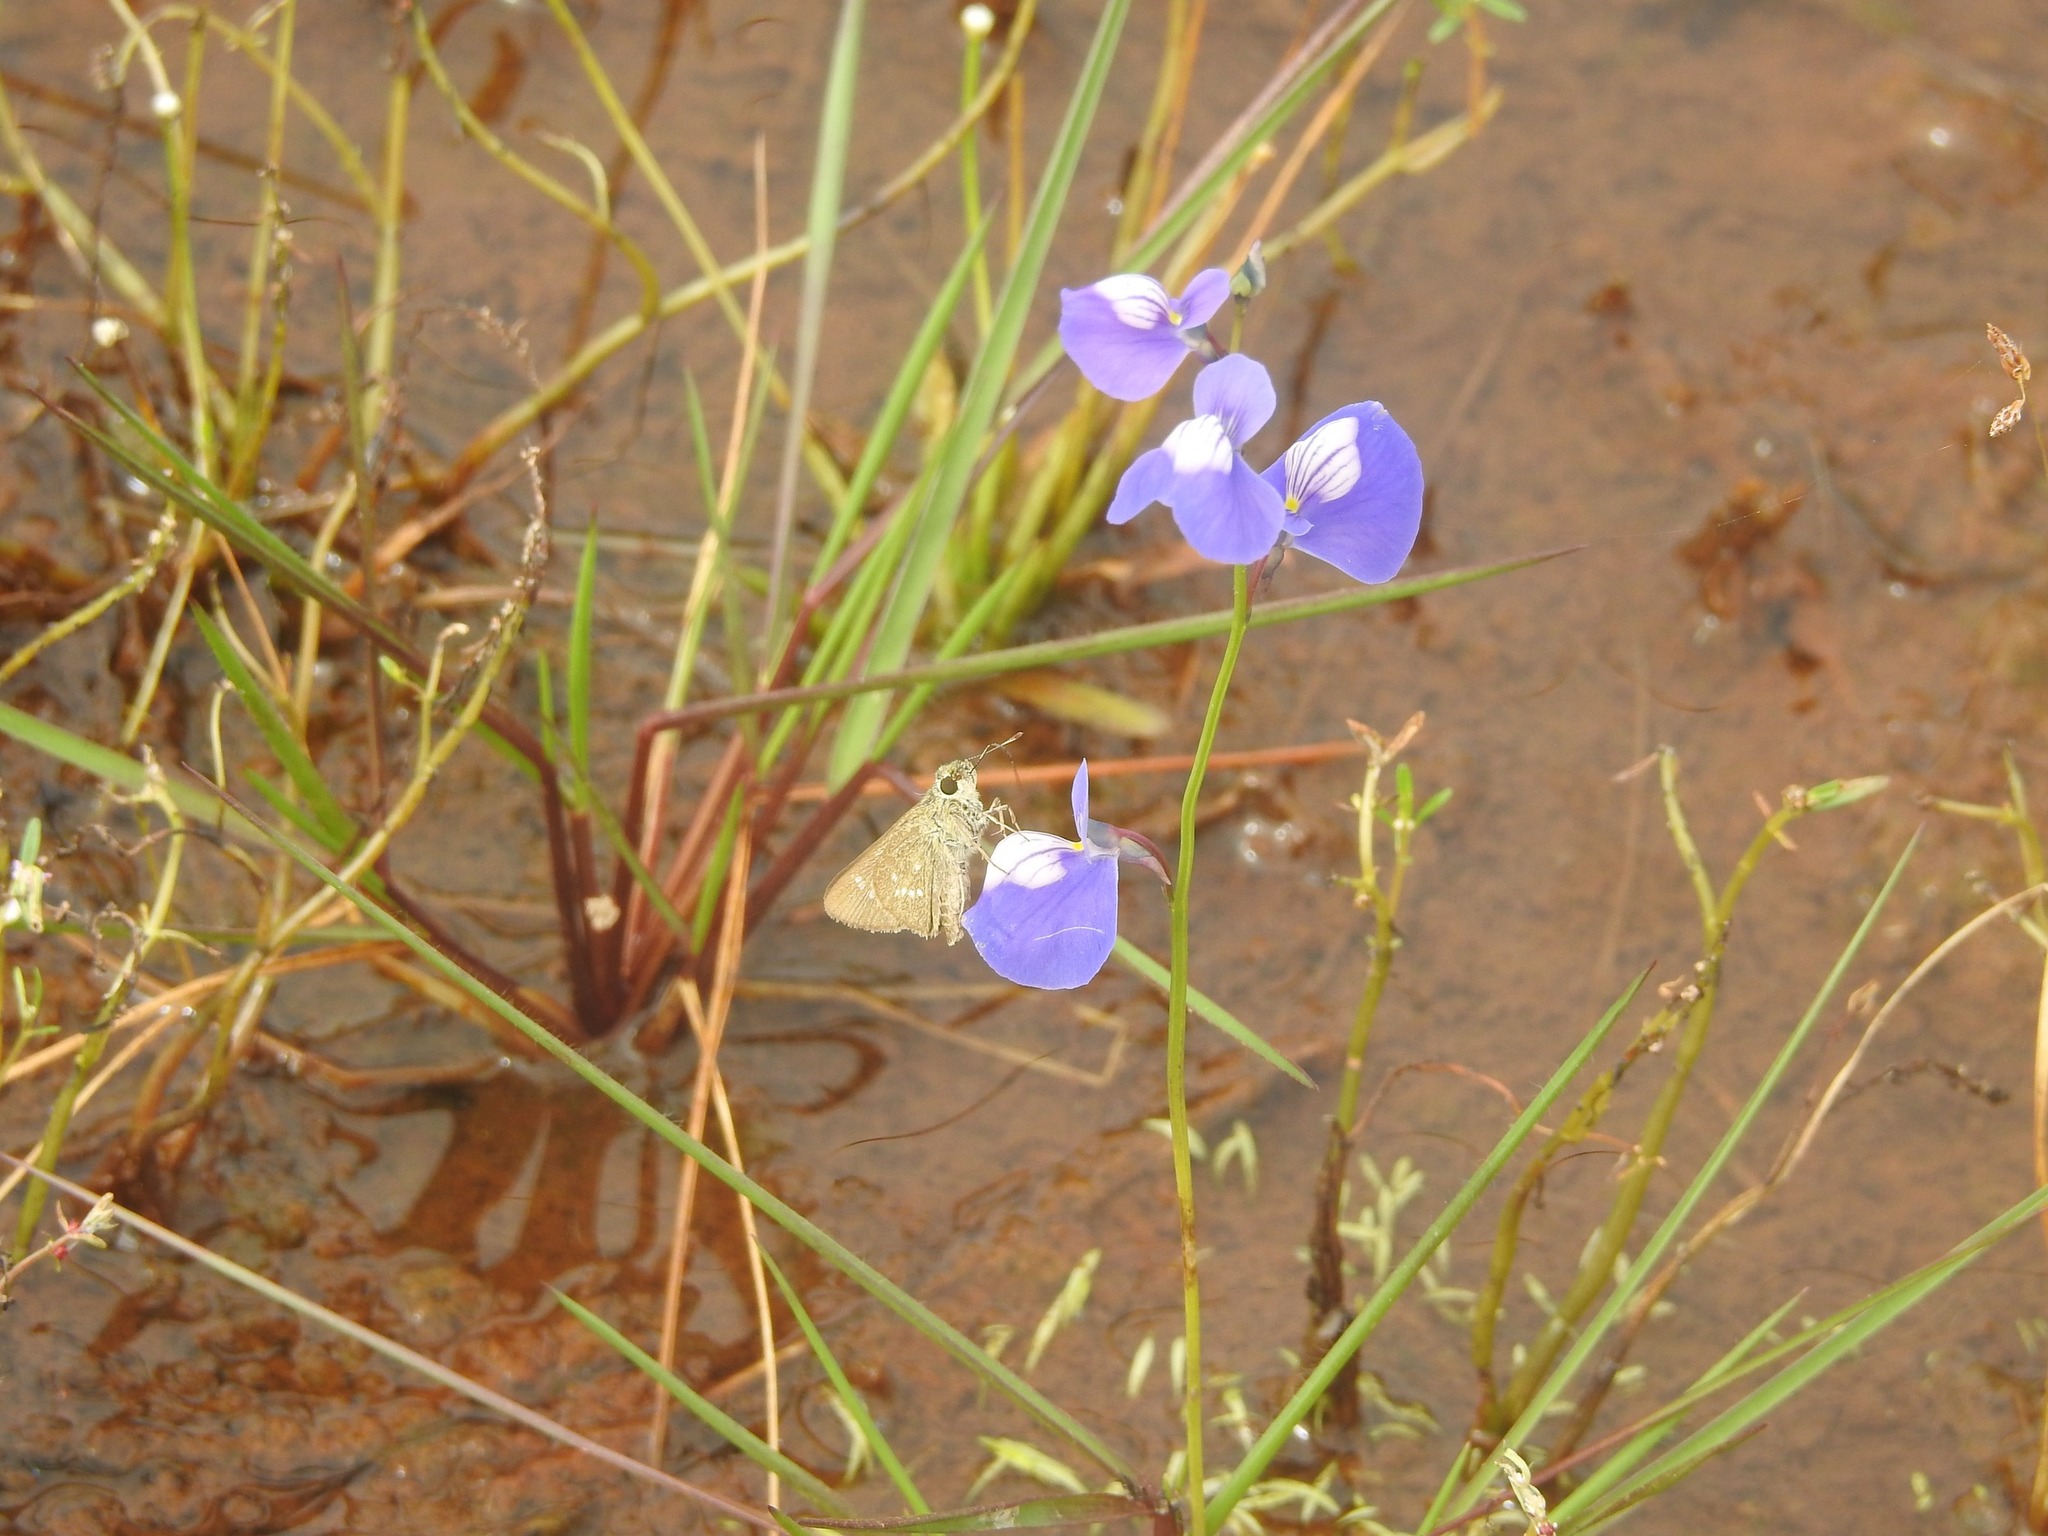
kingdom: Animalia
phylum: Arthropoda
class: Insecta
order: Lepidoptera
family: Hesperiidae
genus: Parnara
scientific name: Parnara naso
